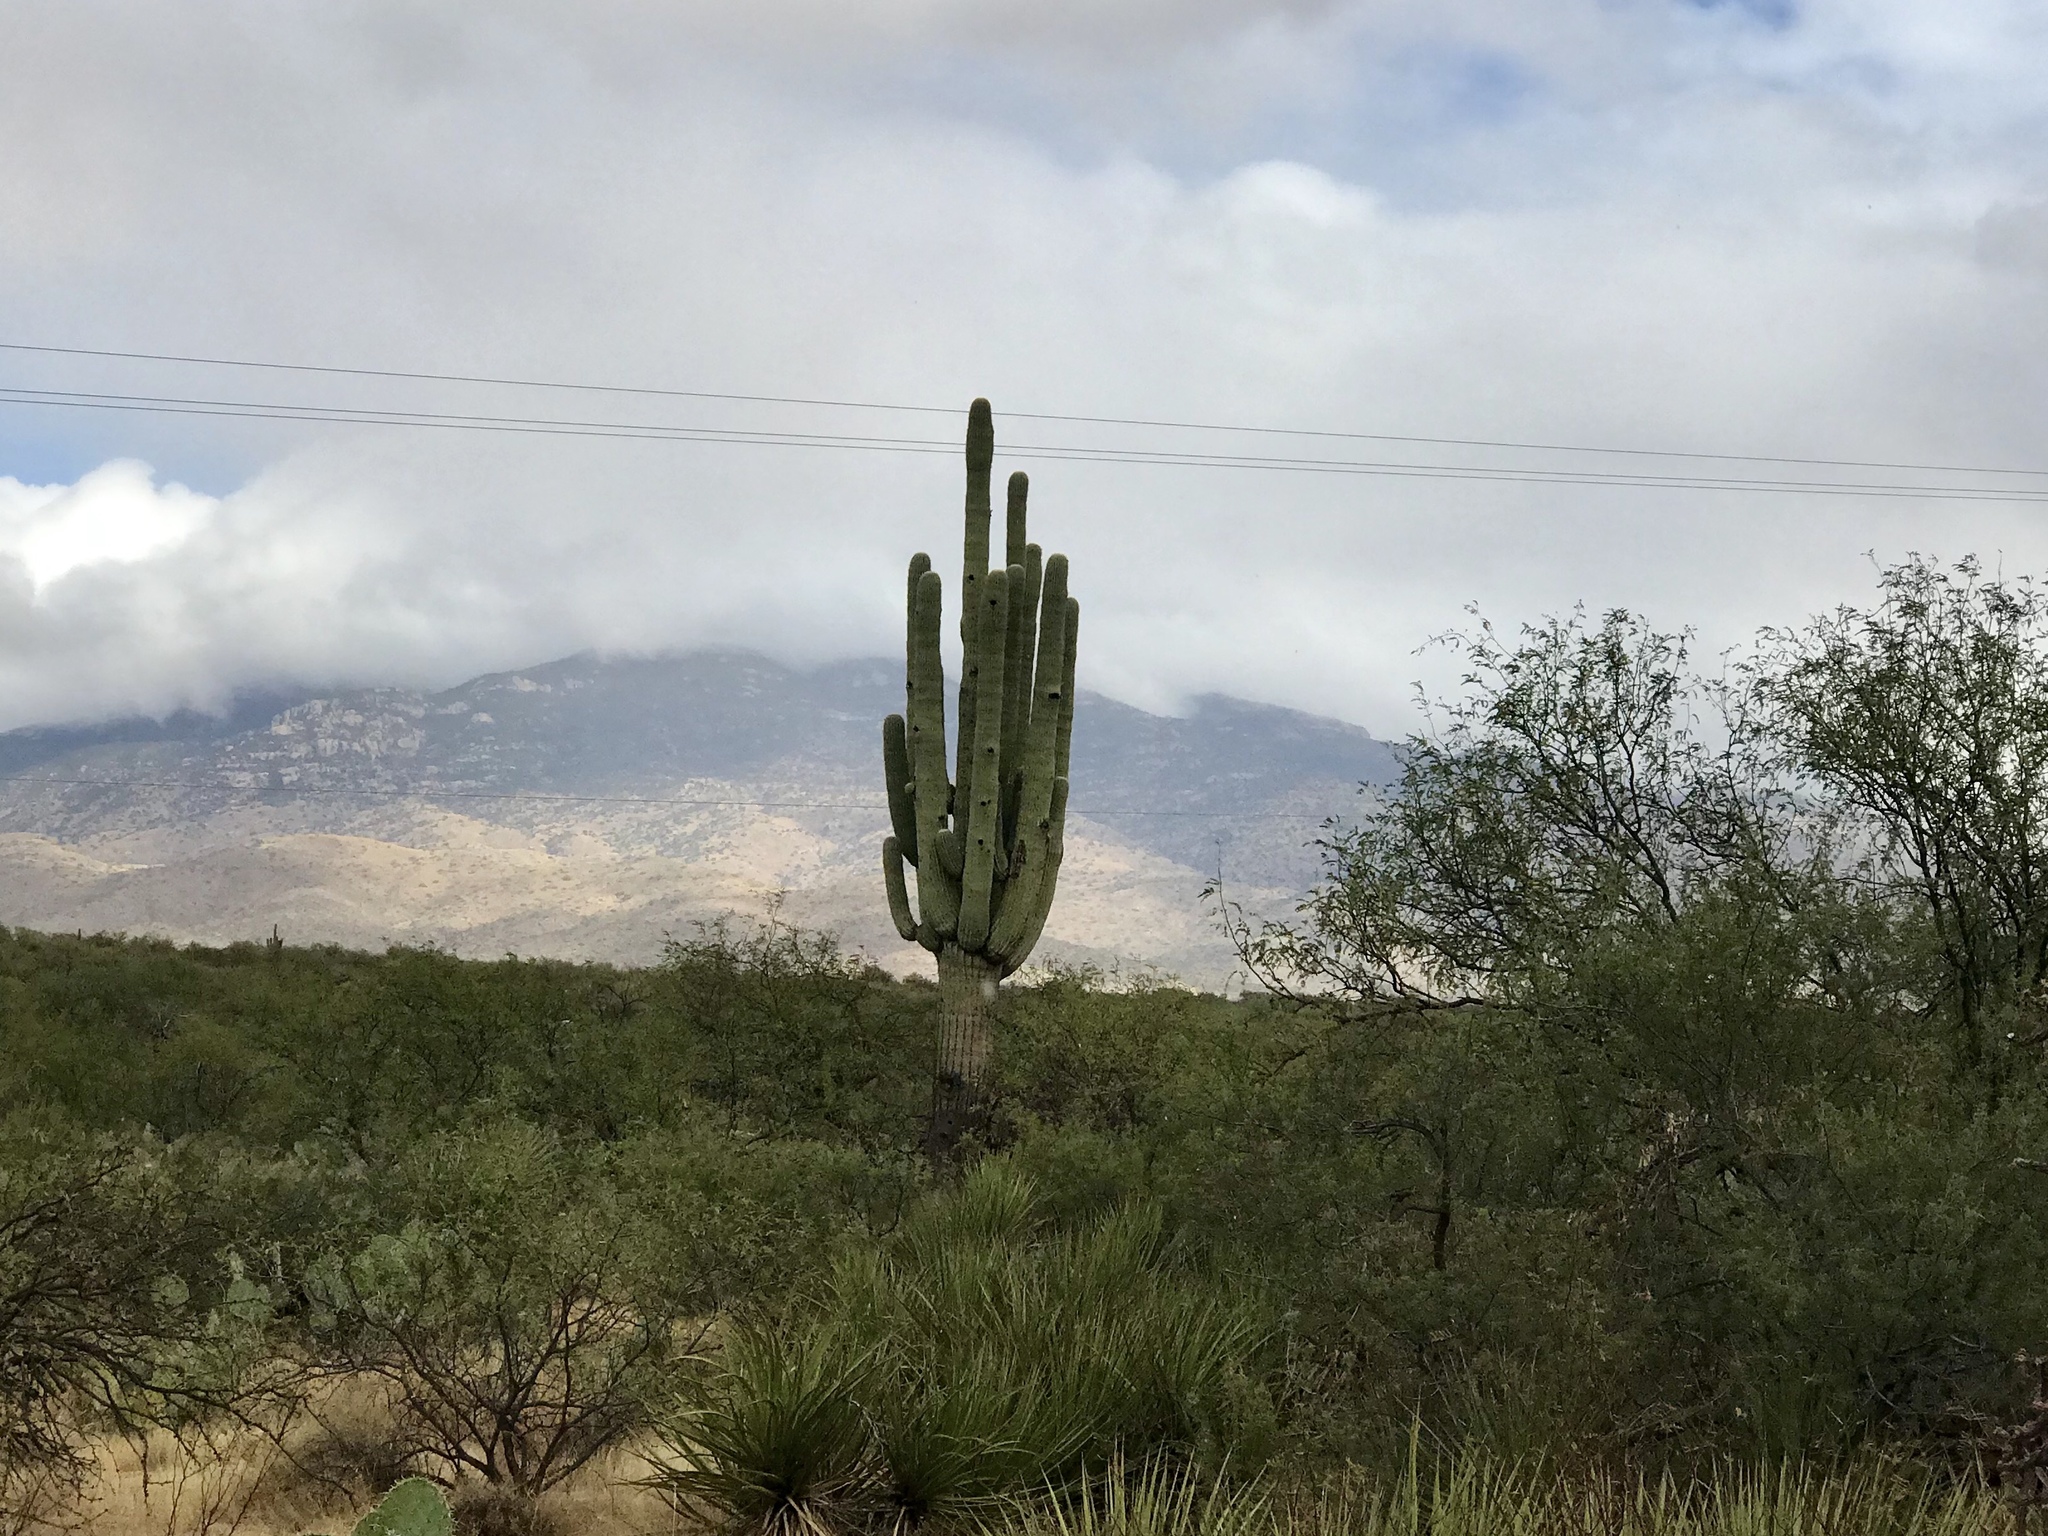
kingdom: Plantae
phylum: Tracheophyta
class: Magnoliopsida
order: Caryophyllales
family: Cactaceae
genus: Carnegiea
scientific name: Carnegiea gigantea
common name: Saguaro
